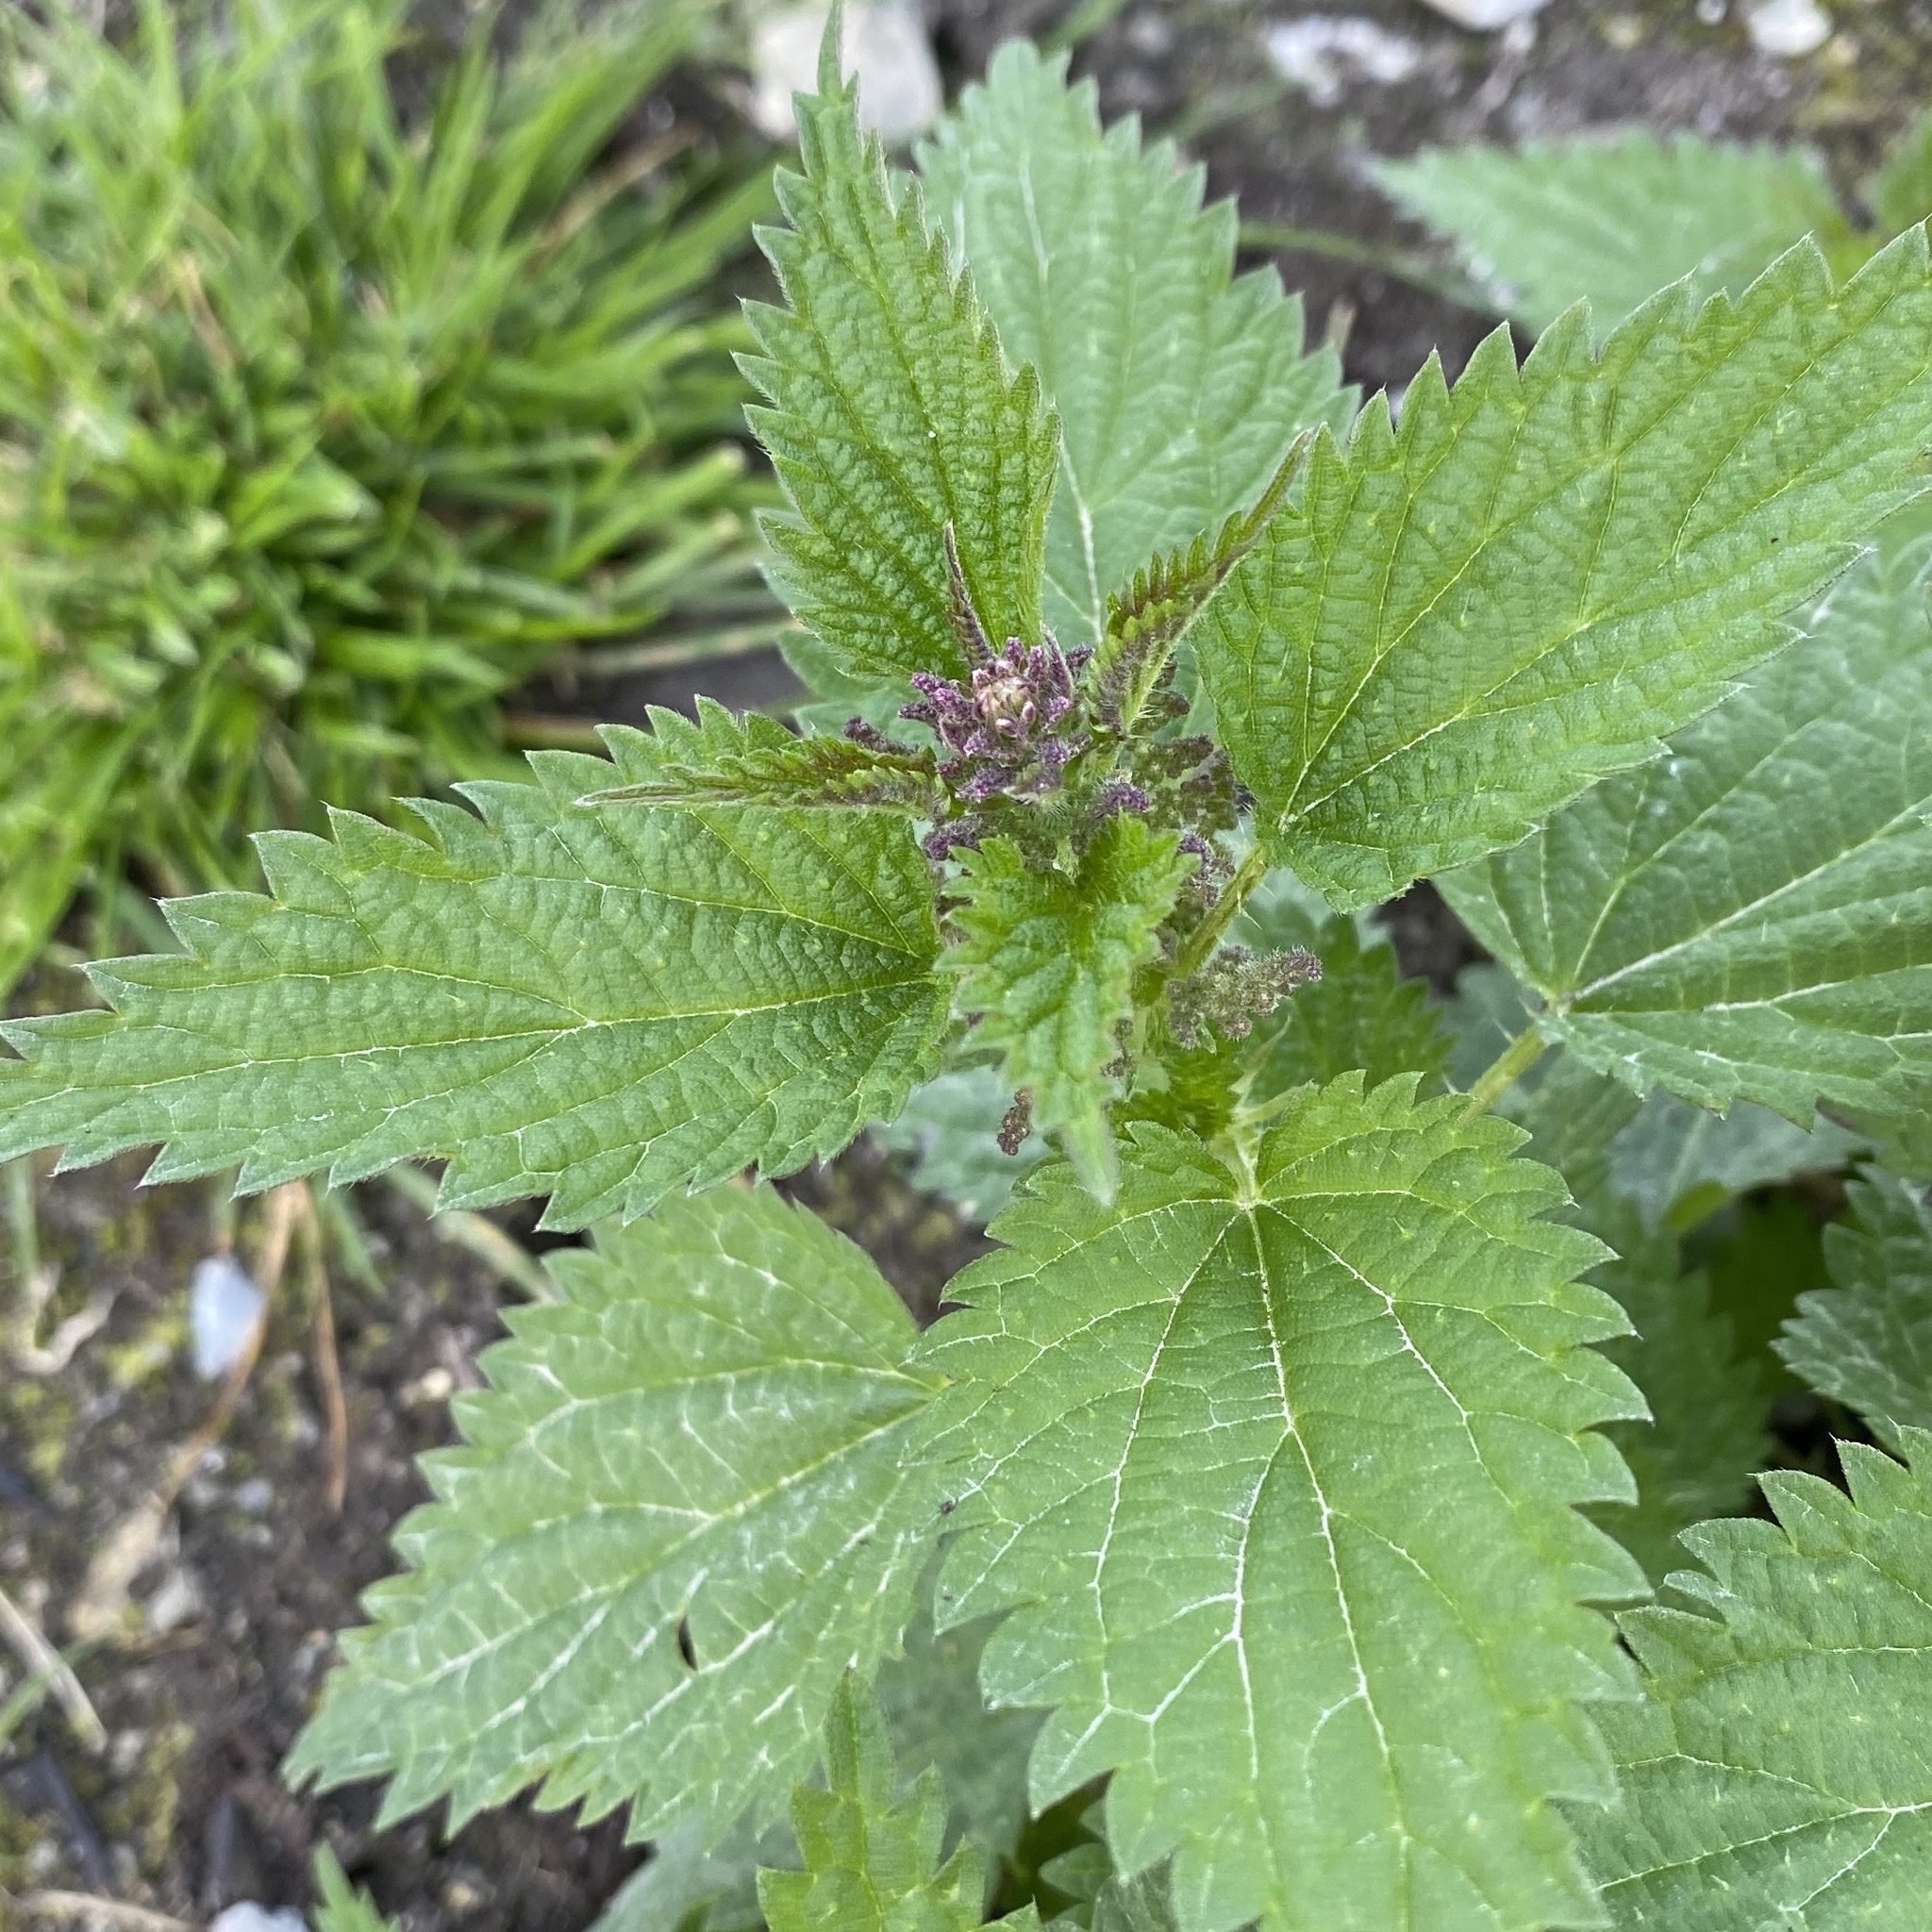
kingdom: Plantae
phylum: Tracheophyta
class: Magnoliopsida
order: Rosales
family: Urticaceae
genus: Urtica
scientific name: Urtica dioica
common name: Common nettle
